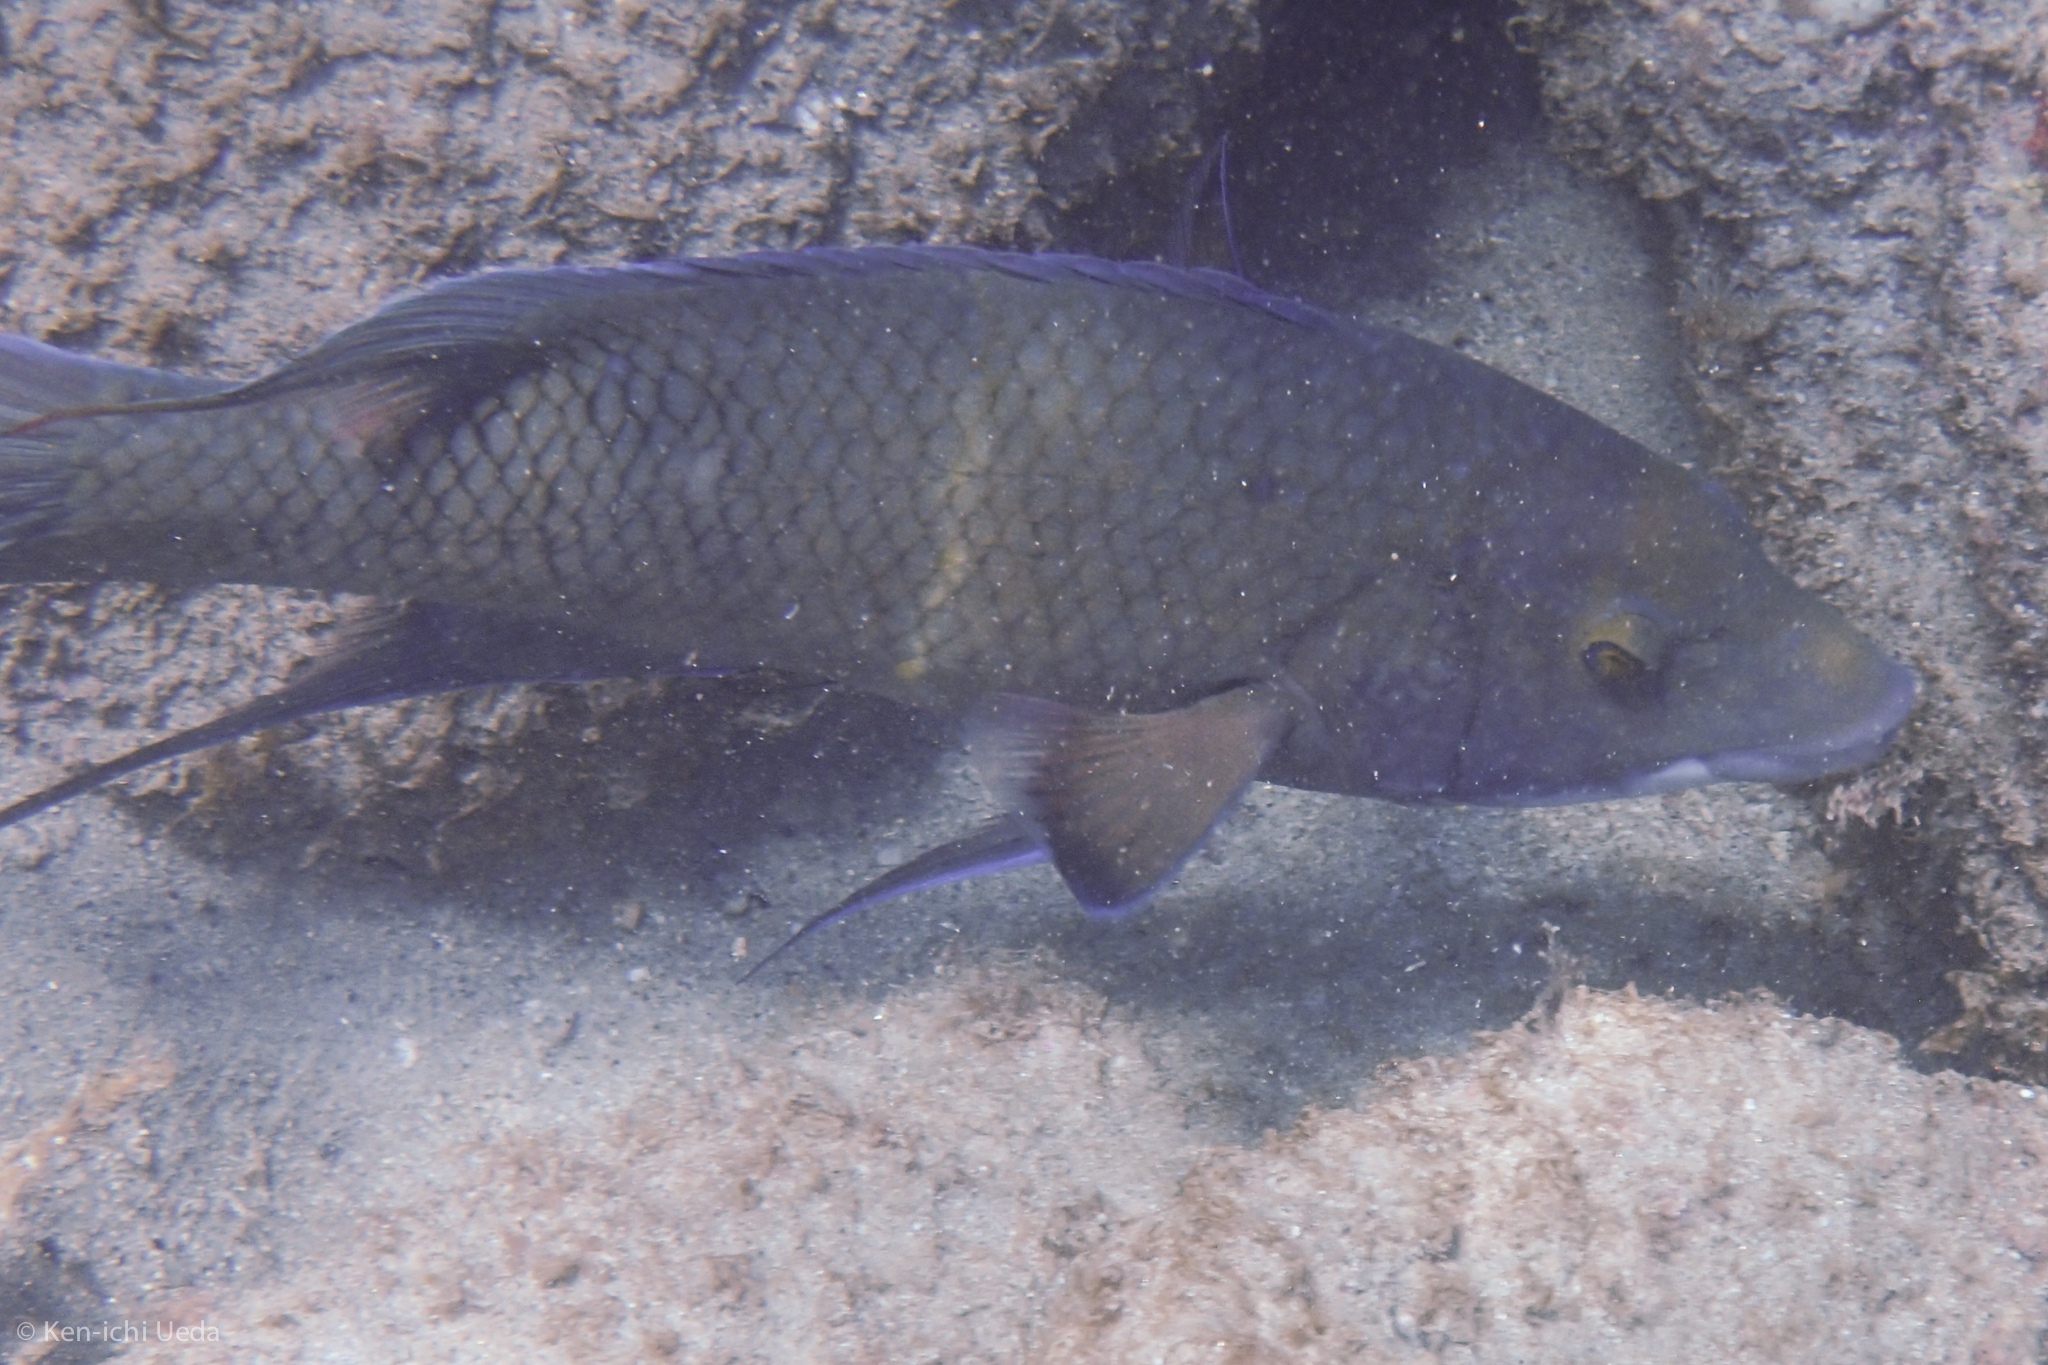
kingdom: Animalia
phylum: Chordata
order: Perciformes
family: Labridae
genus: Bodianus
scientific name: Bodianus diplotaenia
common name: Mexican hogfish
